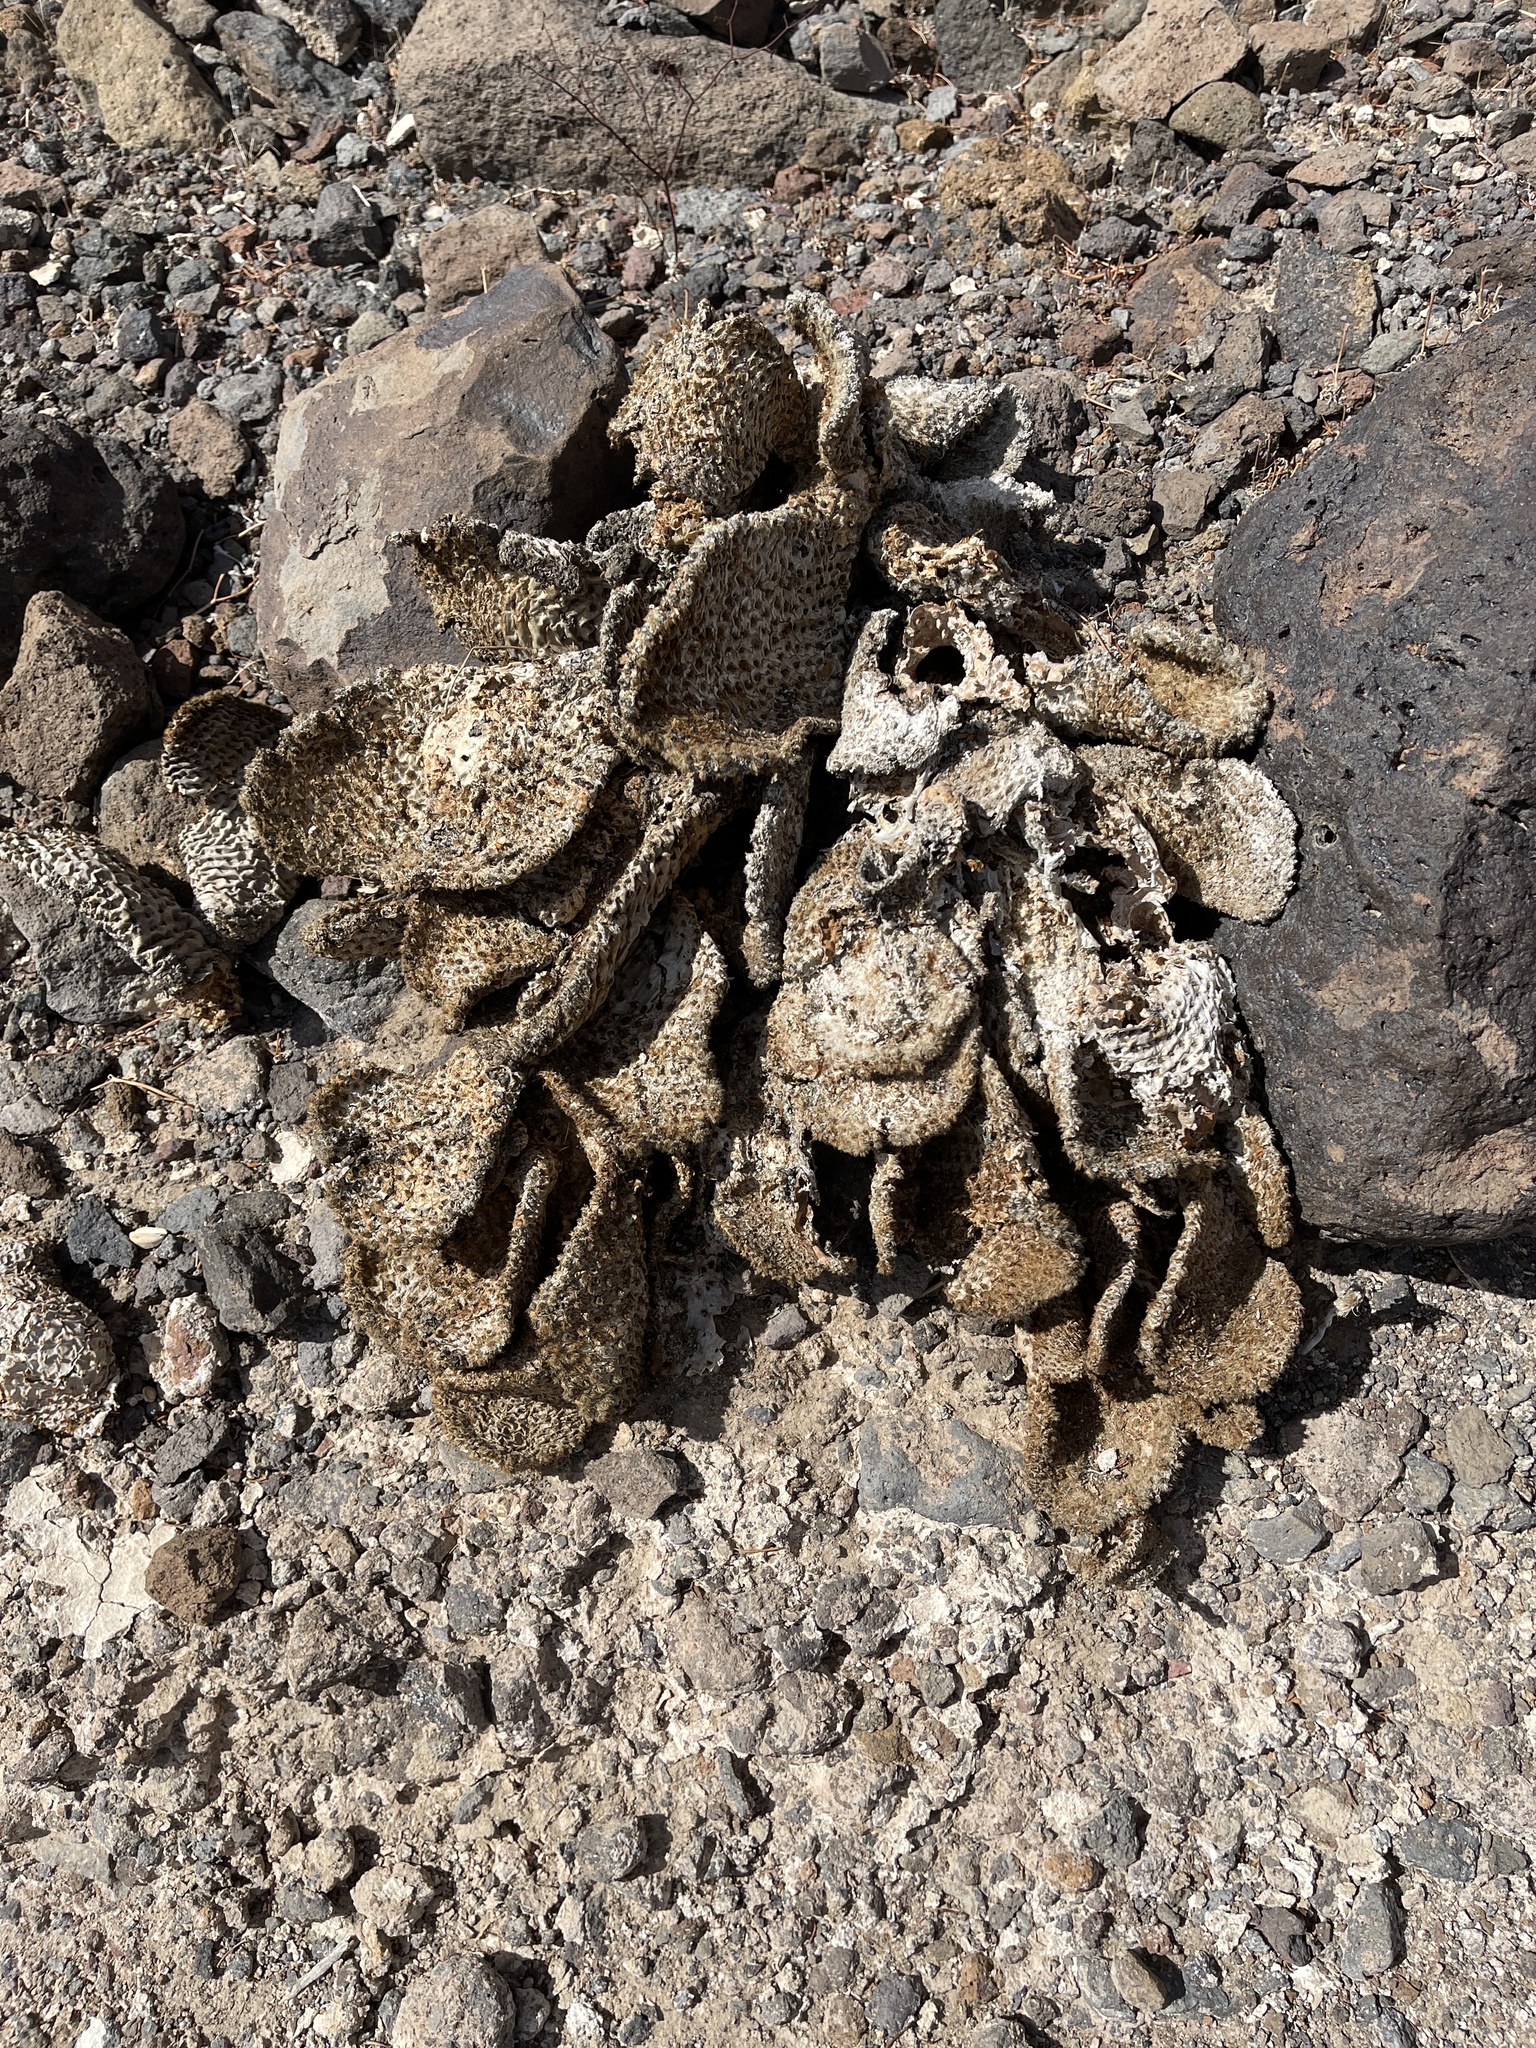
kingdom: Plantae
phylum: Tracheophyta
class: Magnoliopsida
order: Caryophyllales
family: Cactaceae
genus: Opuntia
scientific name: Opuntia basilaris
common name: Beavertail prickly-pear
